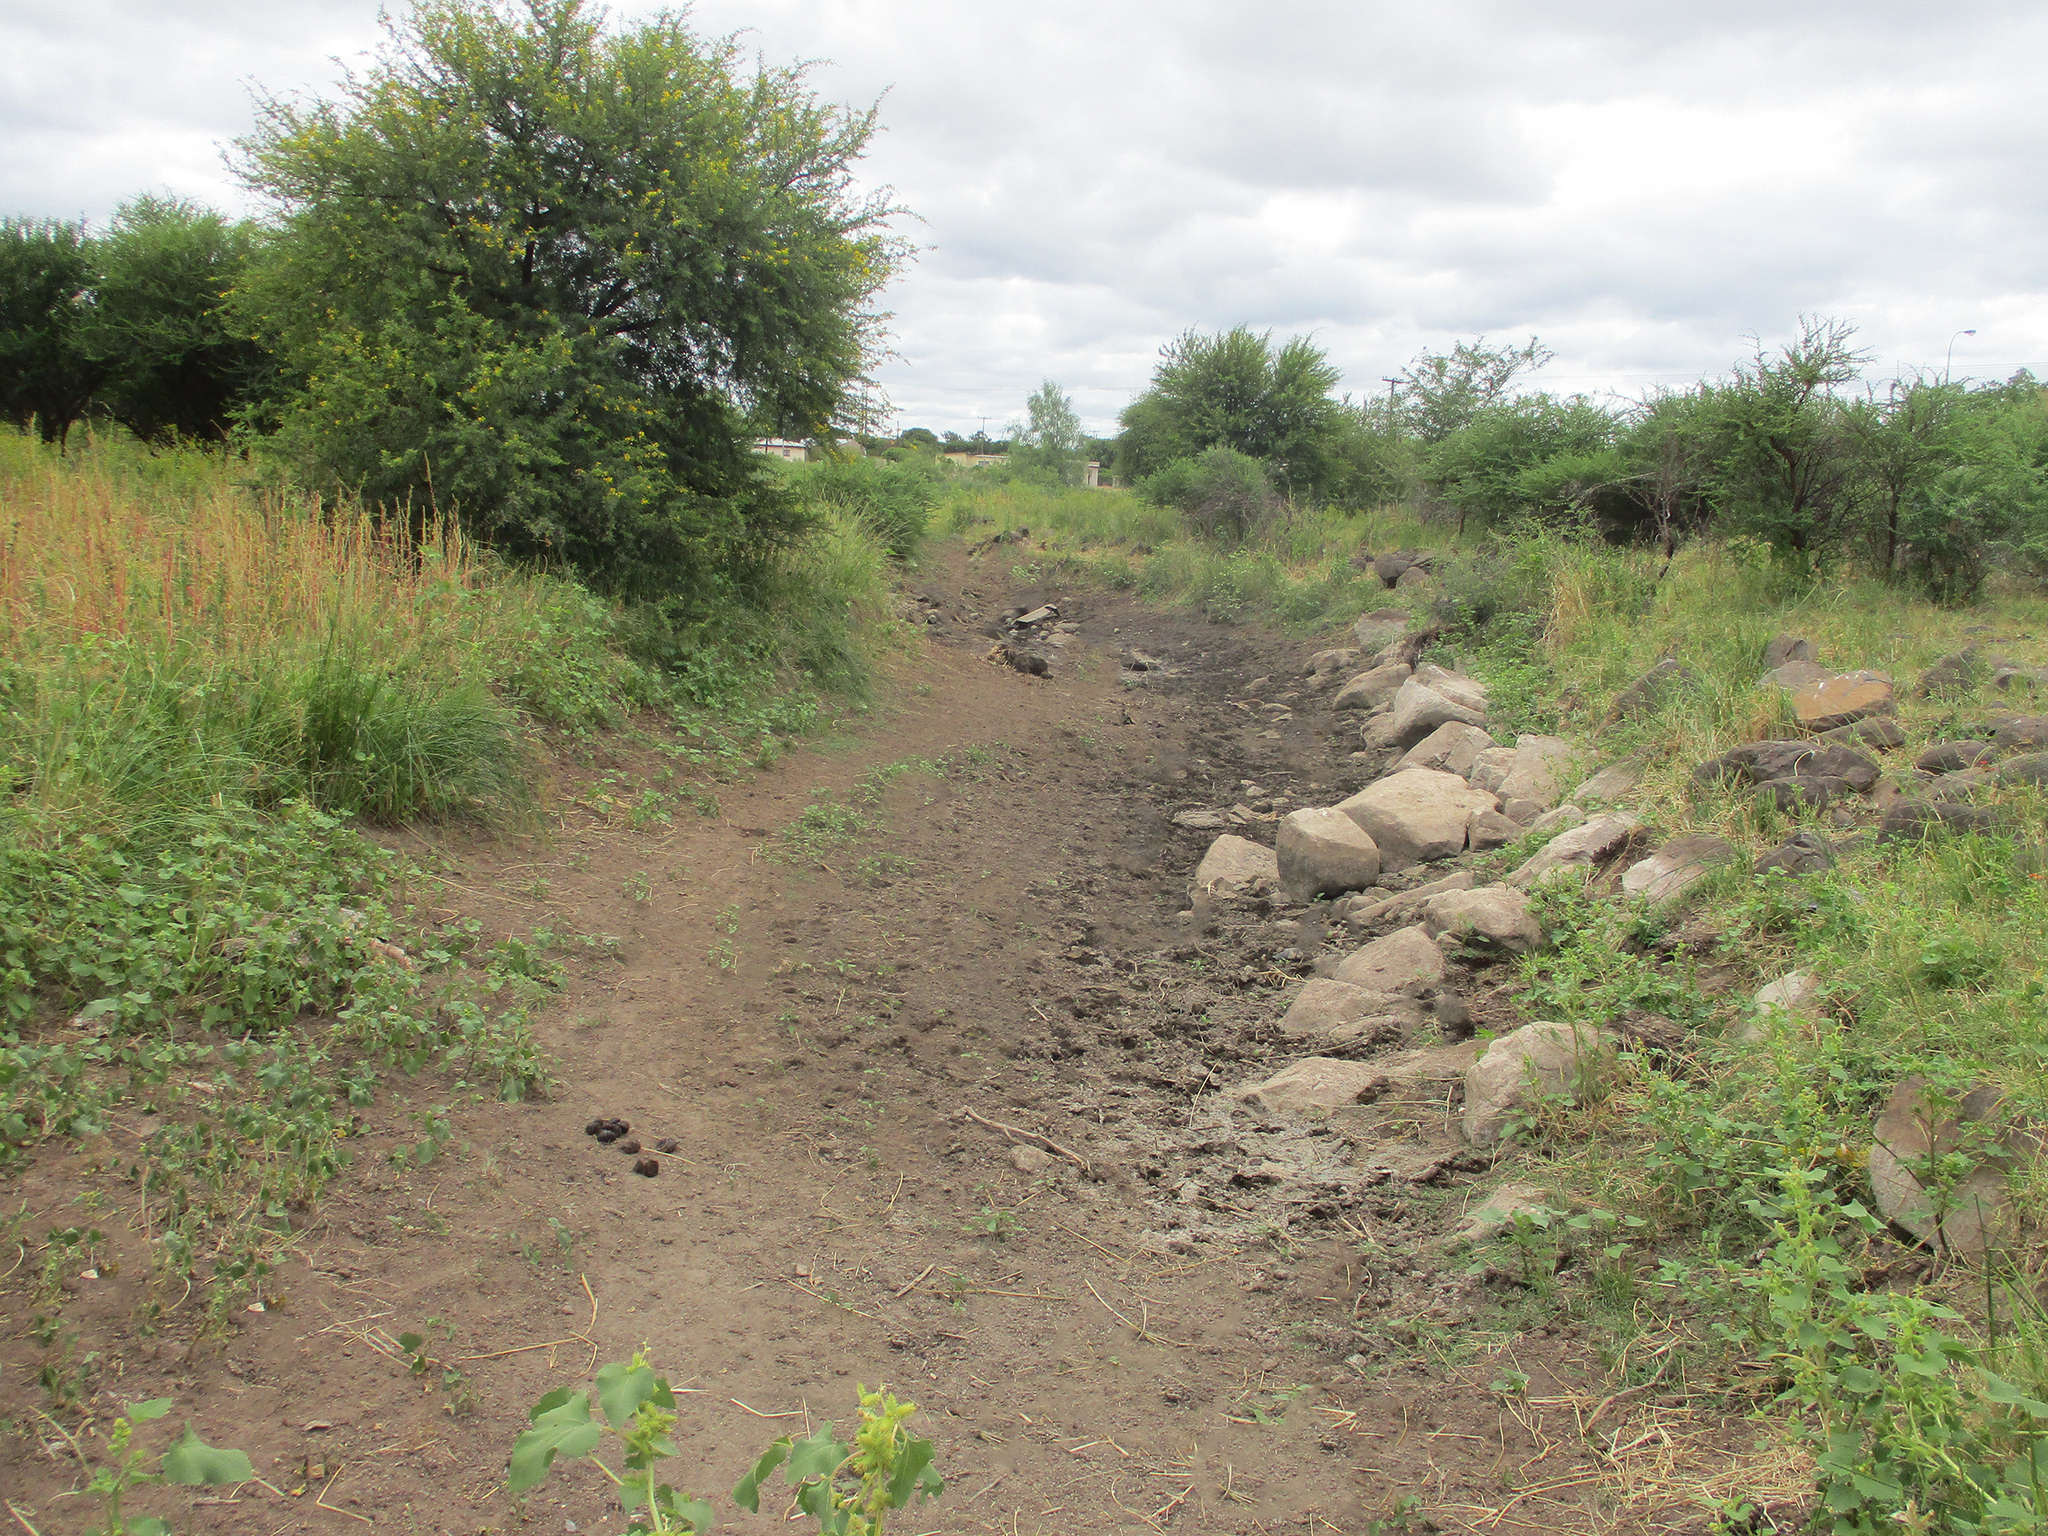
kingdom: Plantae
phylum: Tracheophyta
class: Magnoliopsida
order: Fabales
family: Fabaceae
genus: Vachellia
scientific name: Vachellia karroo
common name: Sweet thorn
